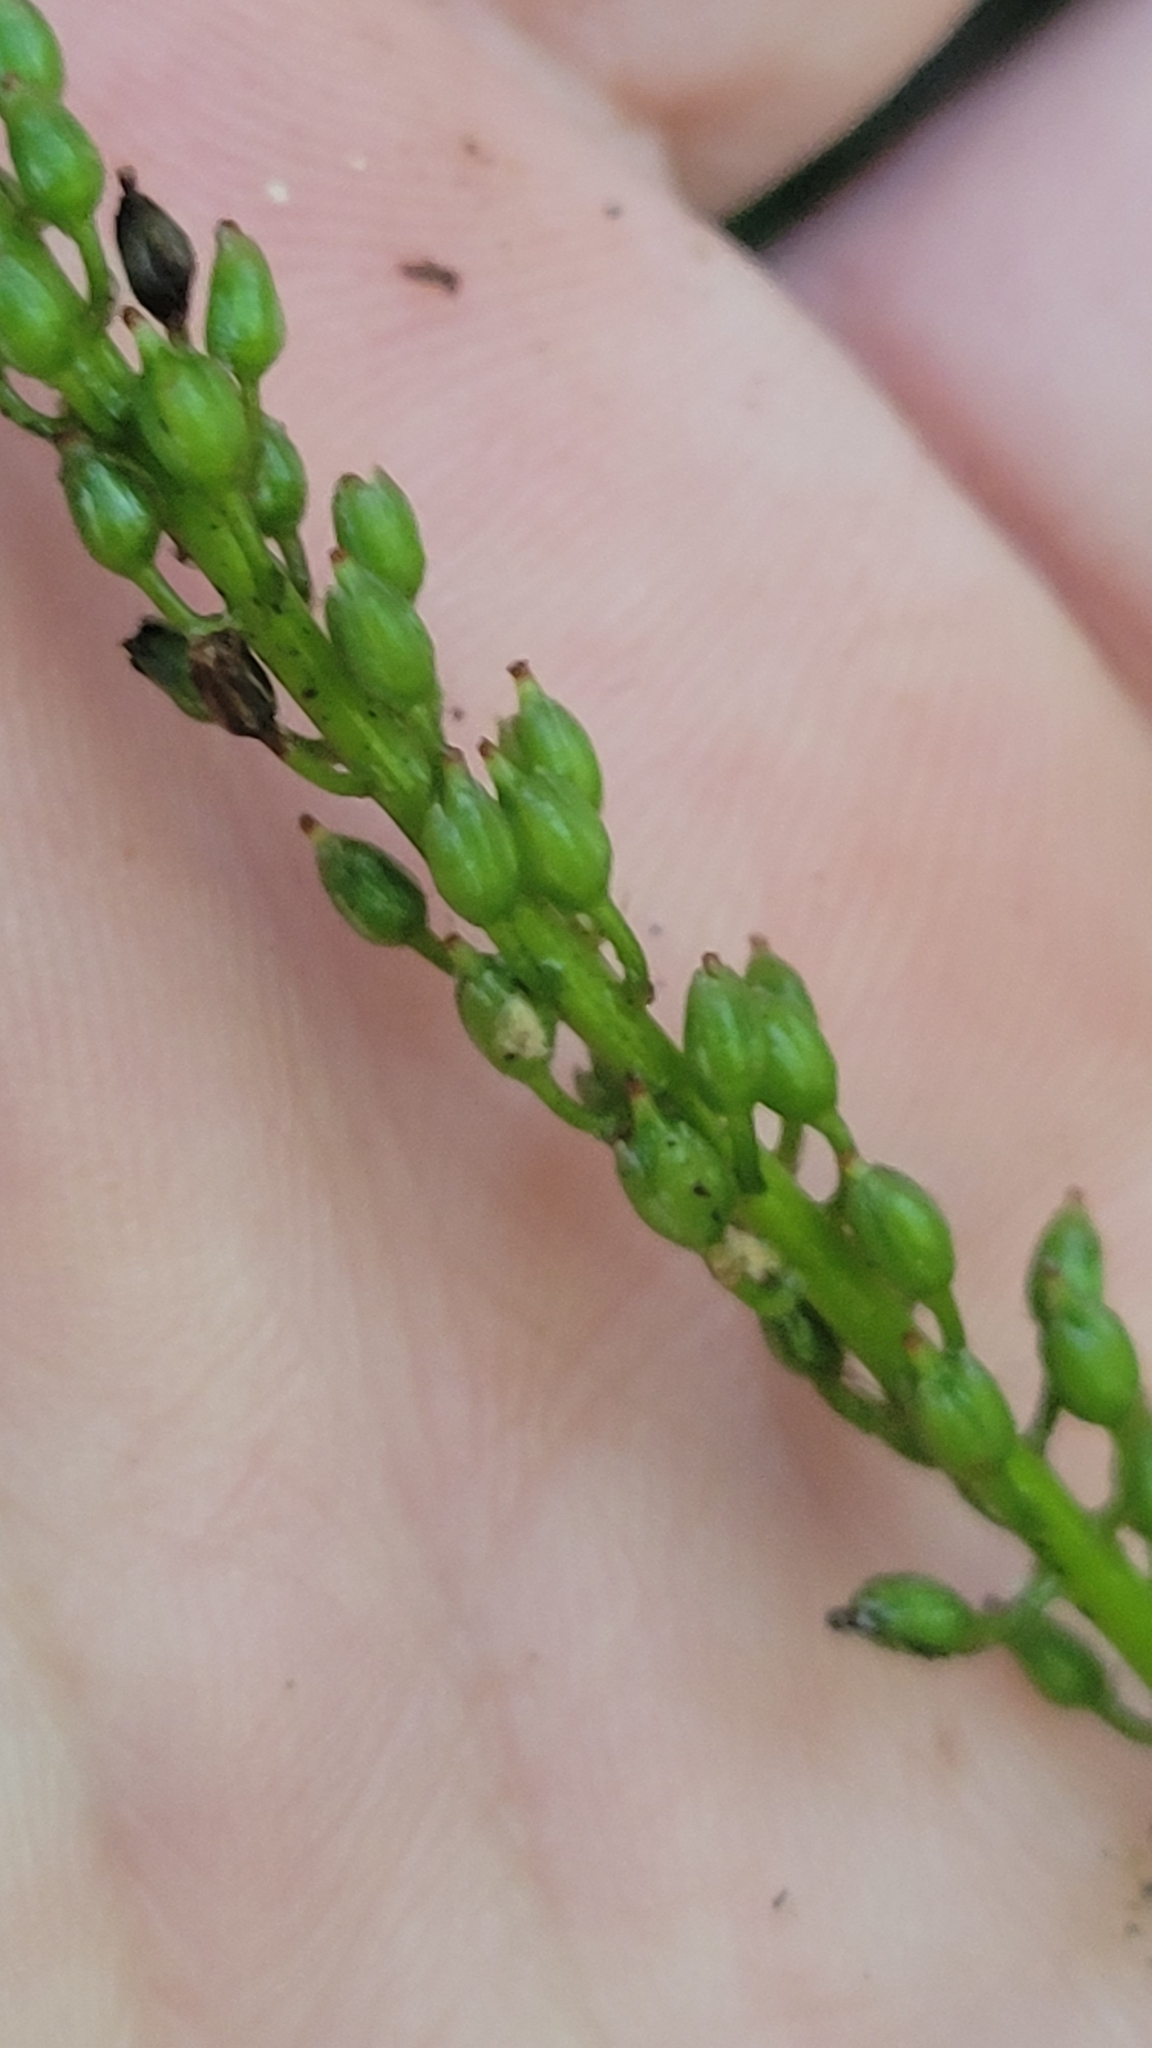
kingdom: Plantae
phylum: Tracheophyta
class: Magnoliopsida
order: Ericales
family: Diapensiaceae
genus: Galax
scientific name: Galax urceolata
